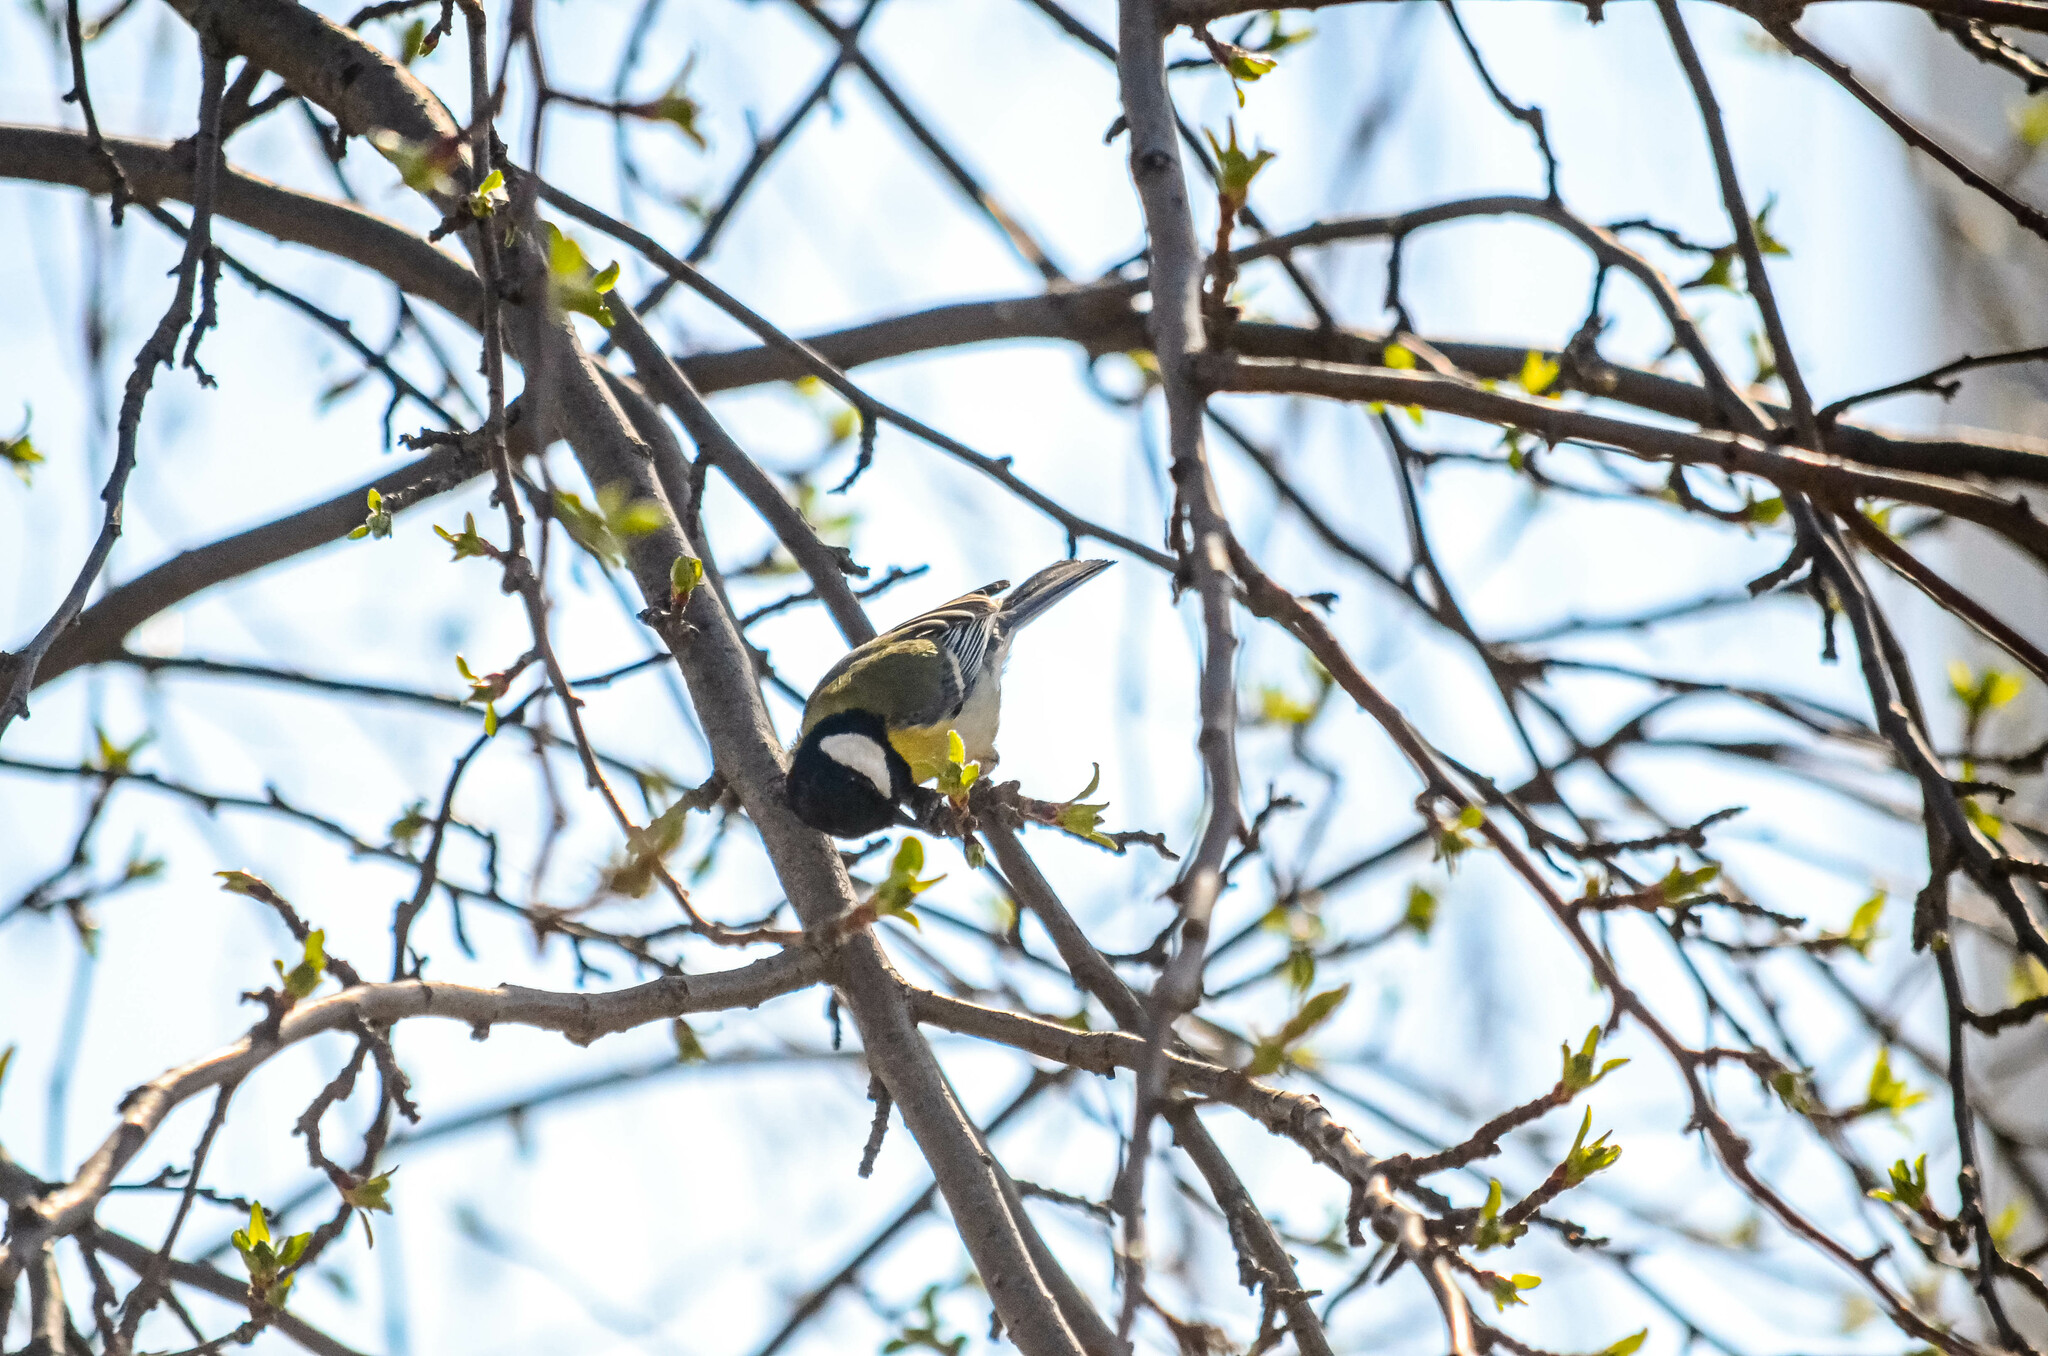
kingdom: Animalia
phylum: Chordata
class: Aves
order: Passeriformes
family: Paridae
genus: Parus
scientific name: Parus major
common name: Great tit
